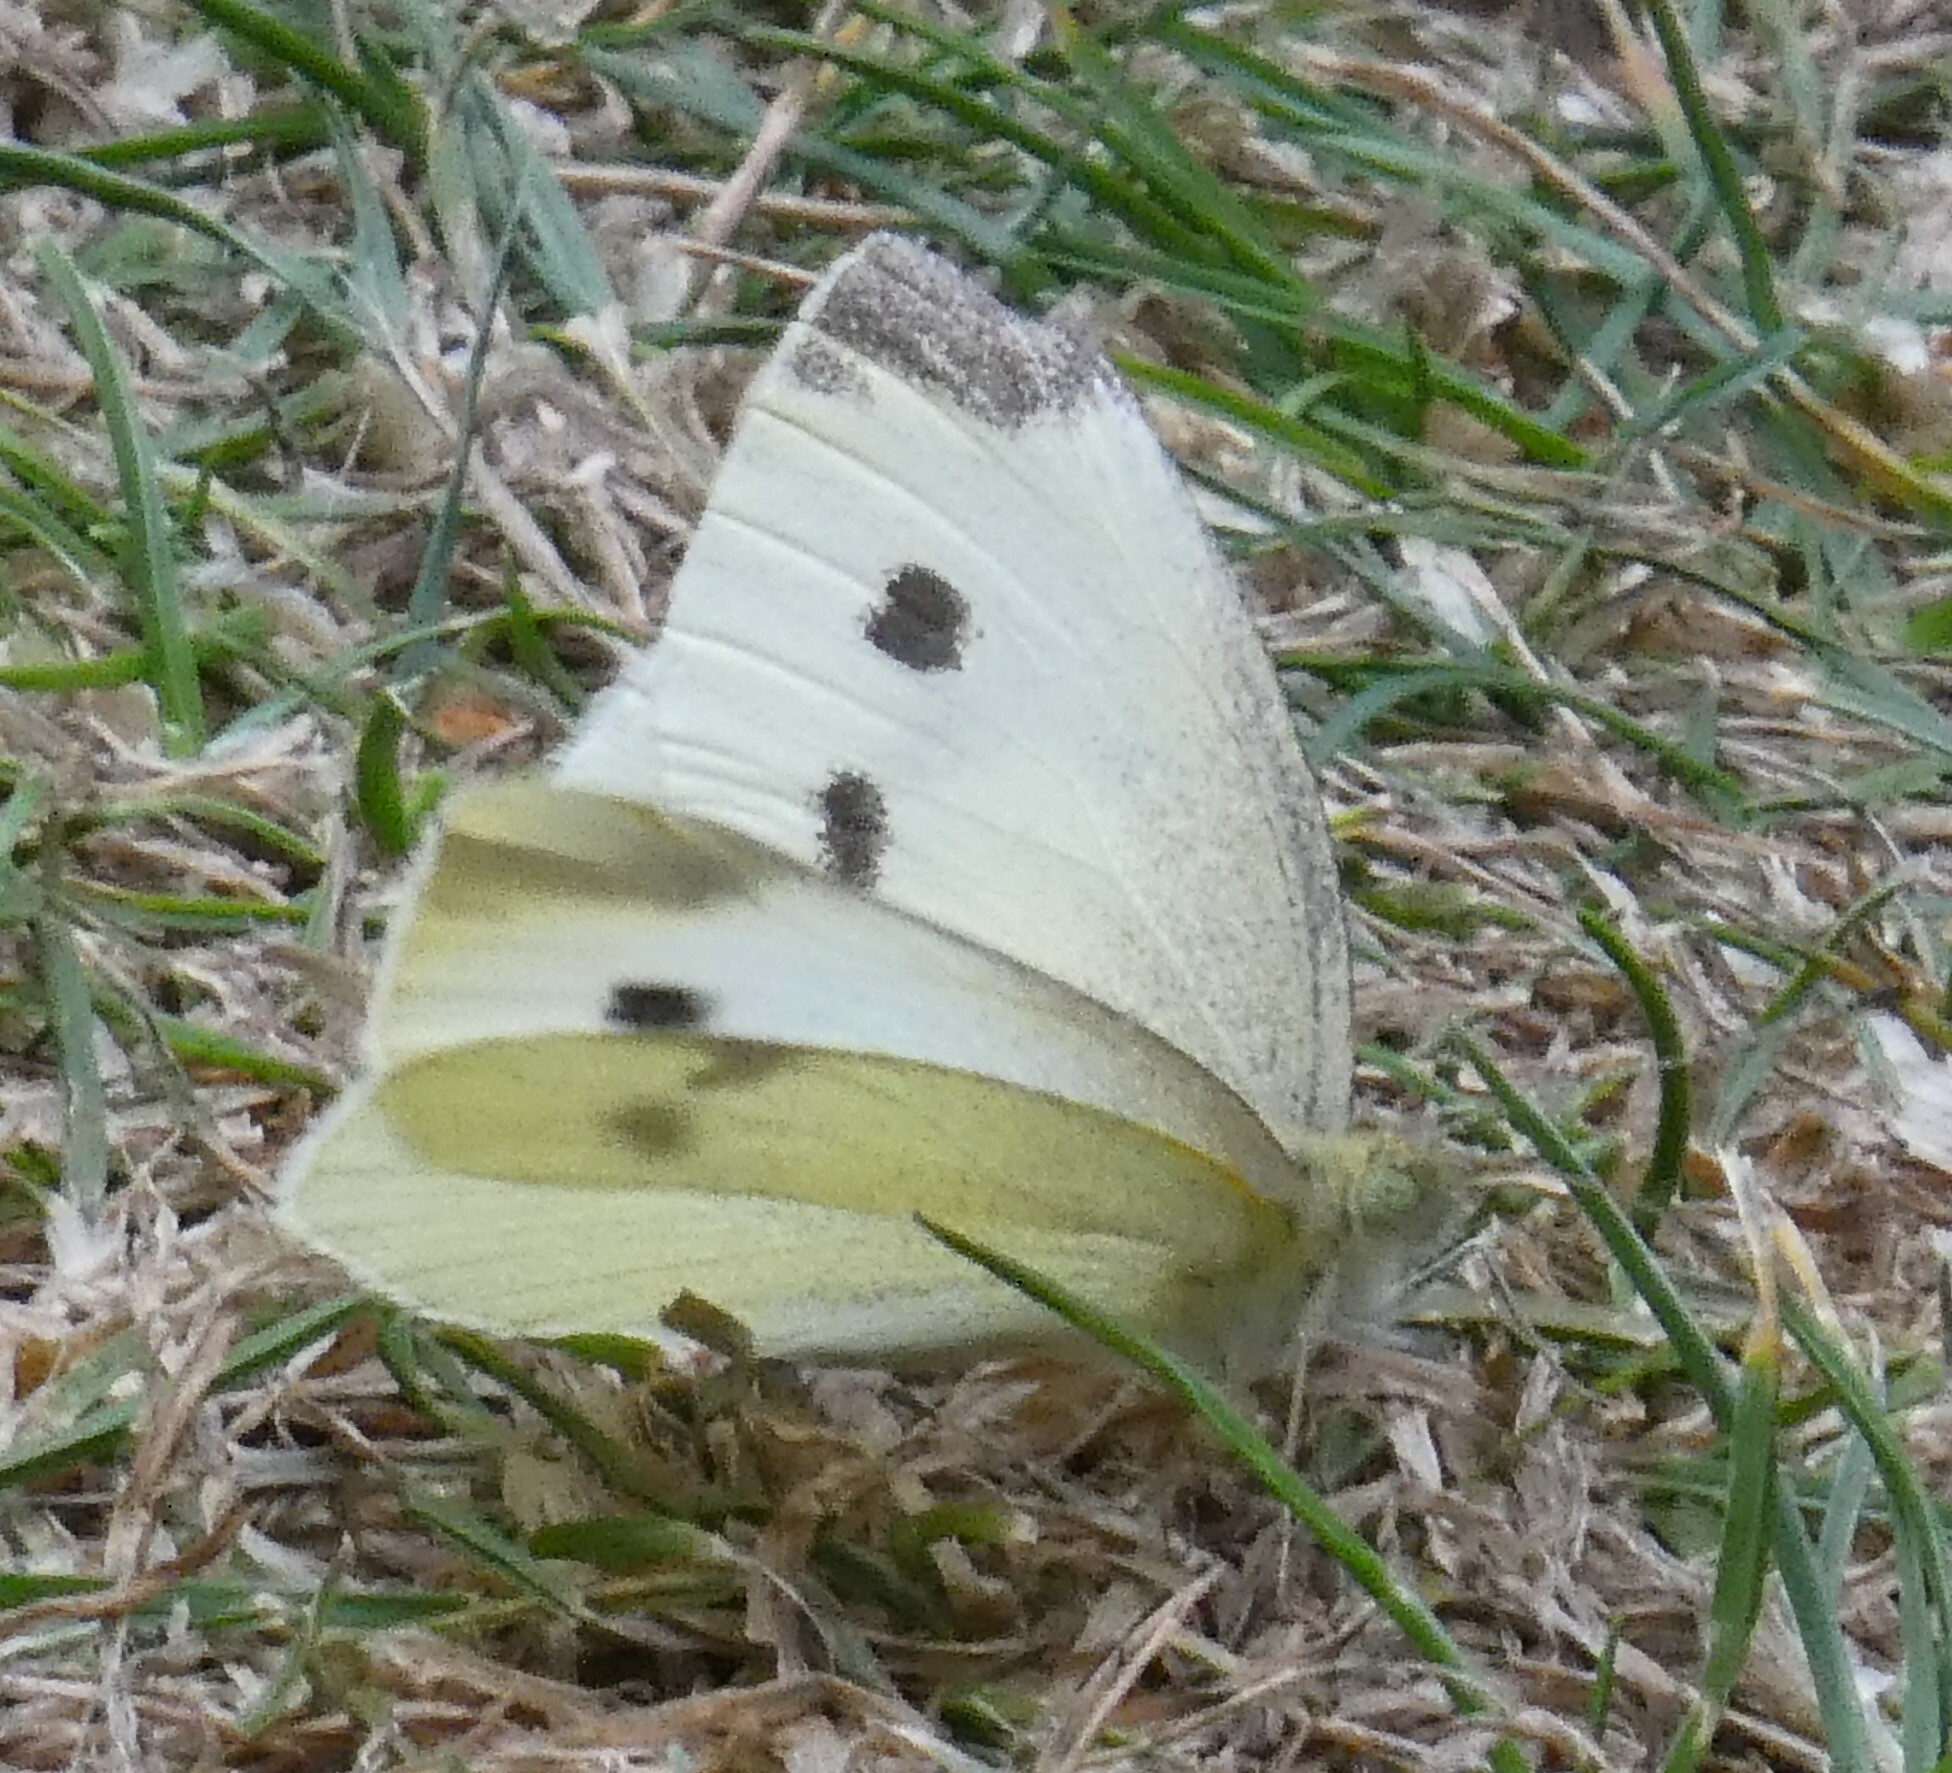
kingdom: Animalia
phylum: Arthropoda
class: Insecta
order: Lepidoptera
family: Pieridae
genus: Pieris
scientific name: Pieris rapae
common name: Small white
